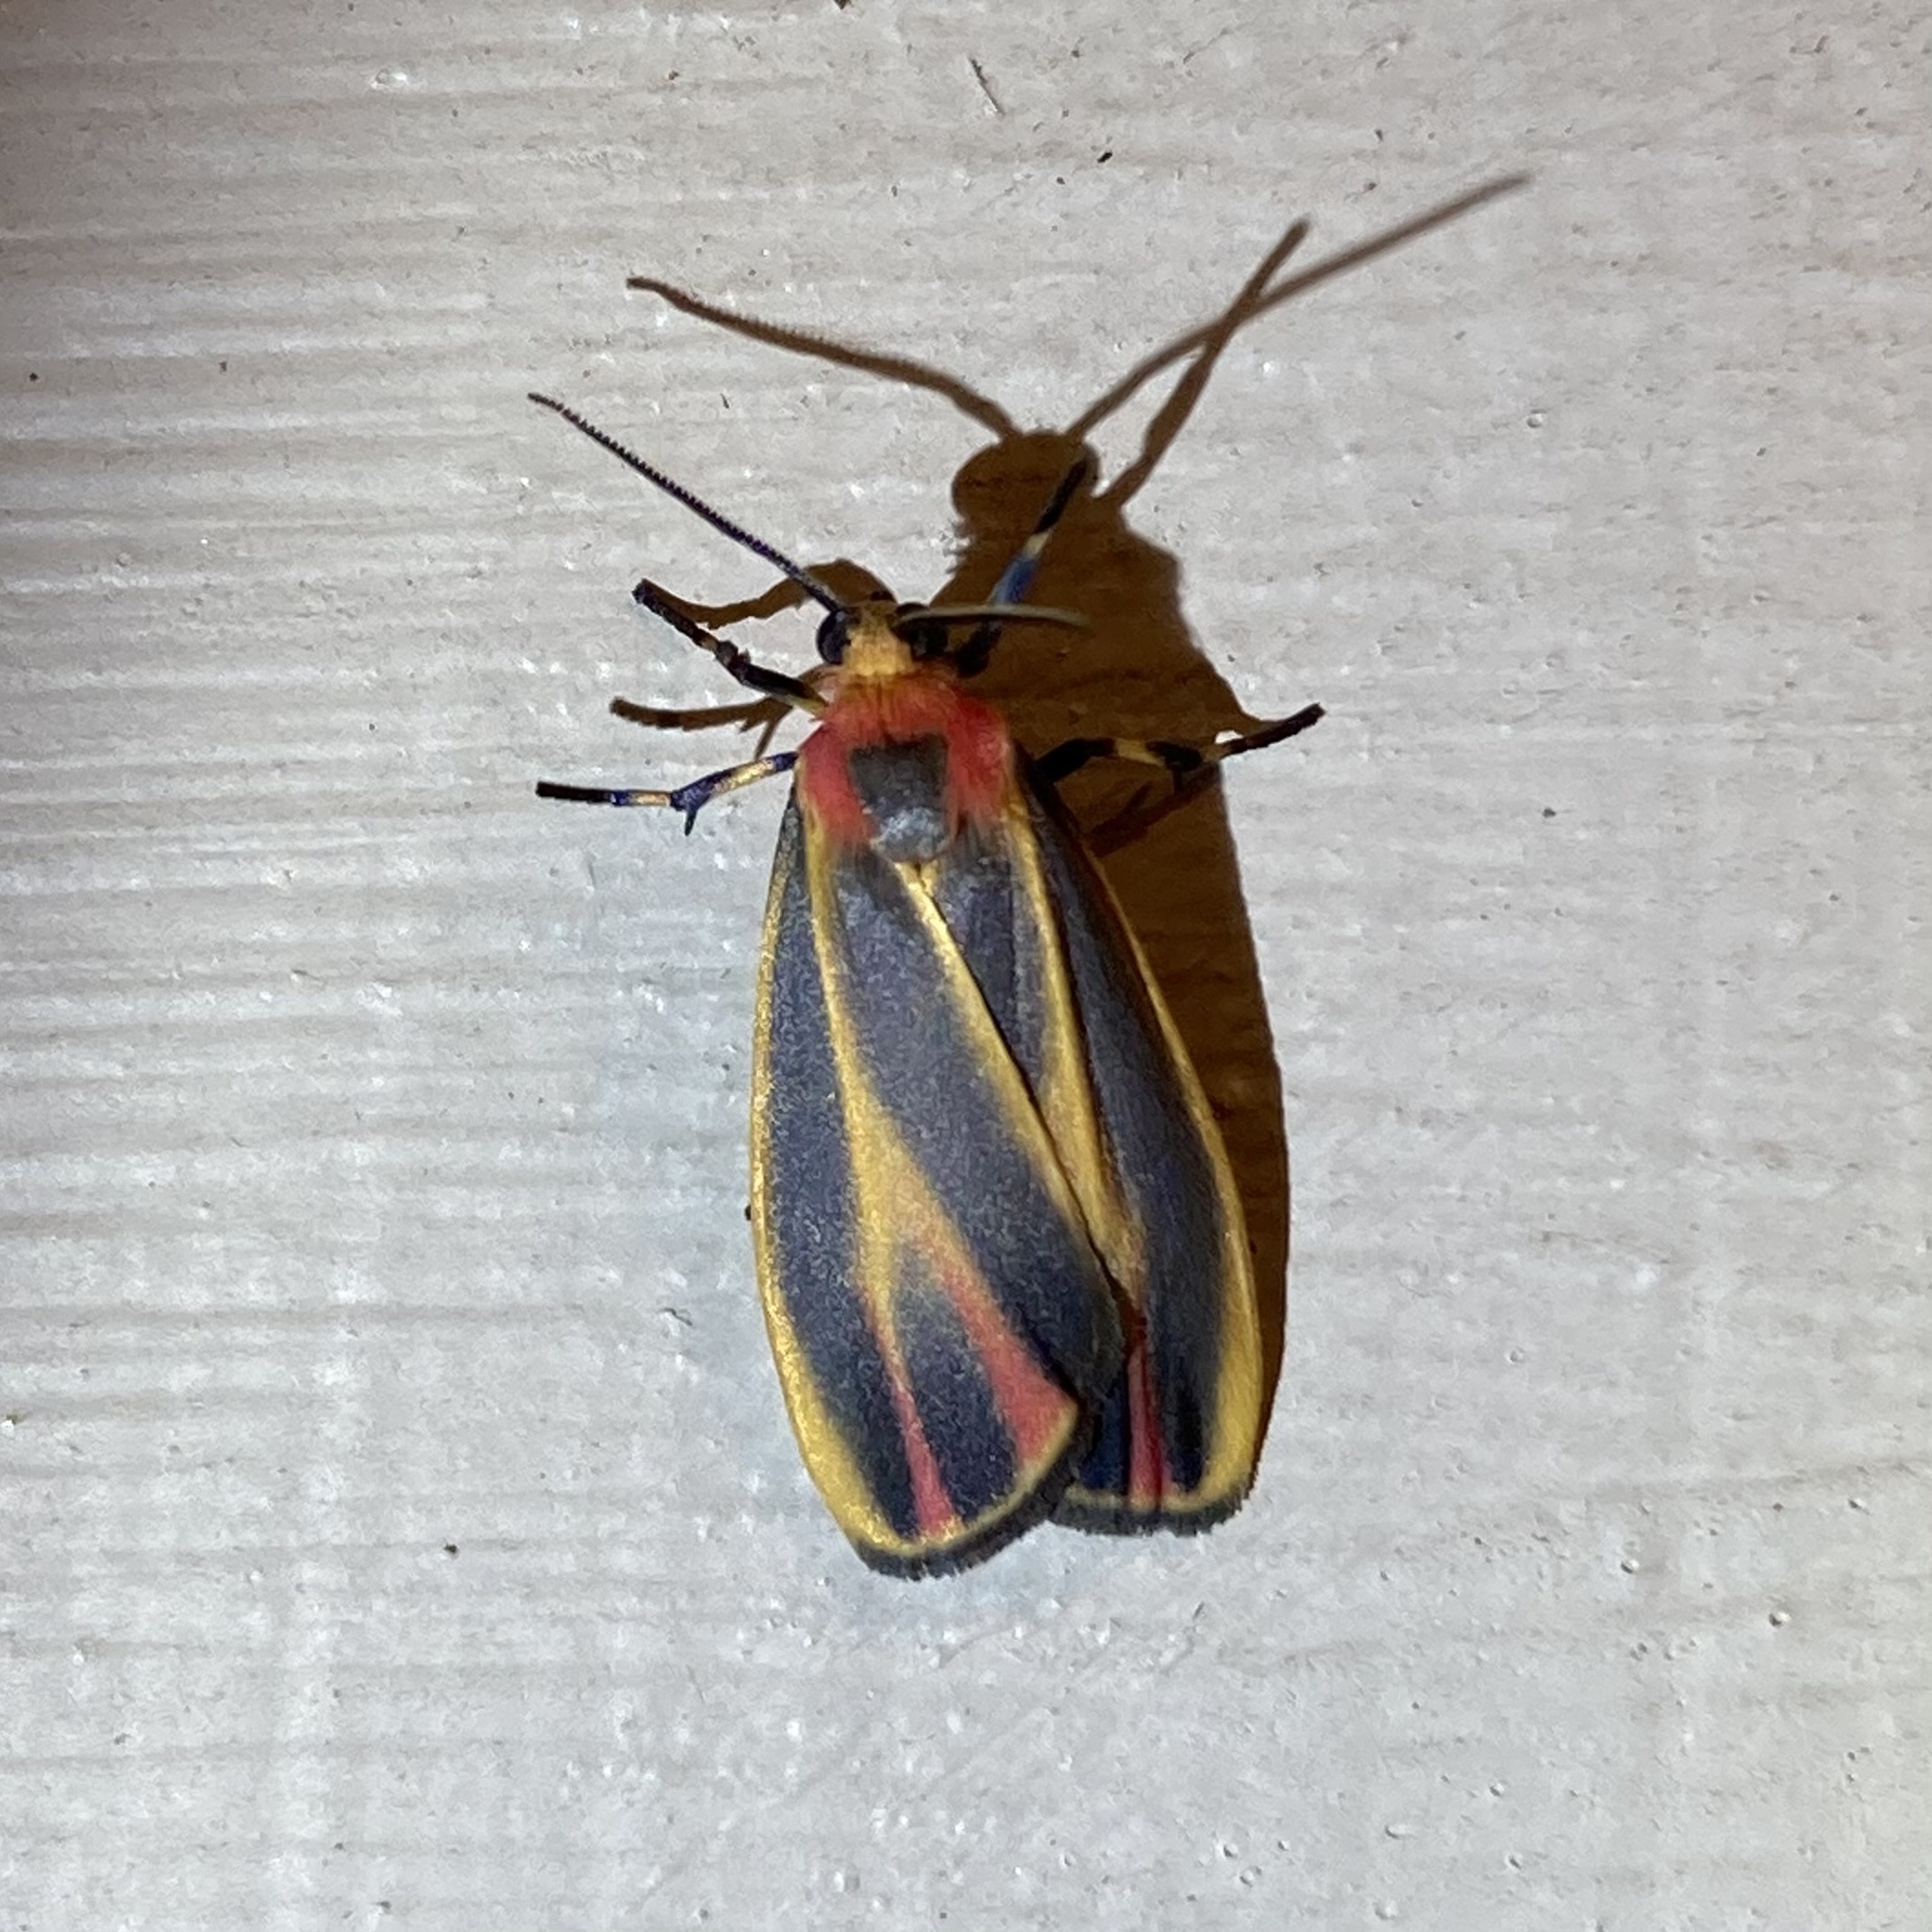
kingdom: Animalia
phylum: Arthropoda
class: Insecta
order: Lepidoptera
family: Erebidae
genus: Hypoprepia
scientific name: Hypoprepia fucosa
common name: Painted lichen moth
